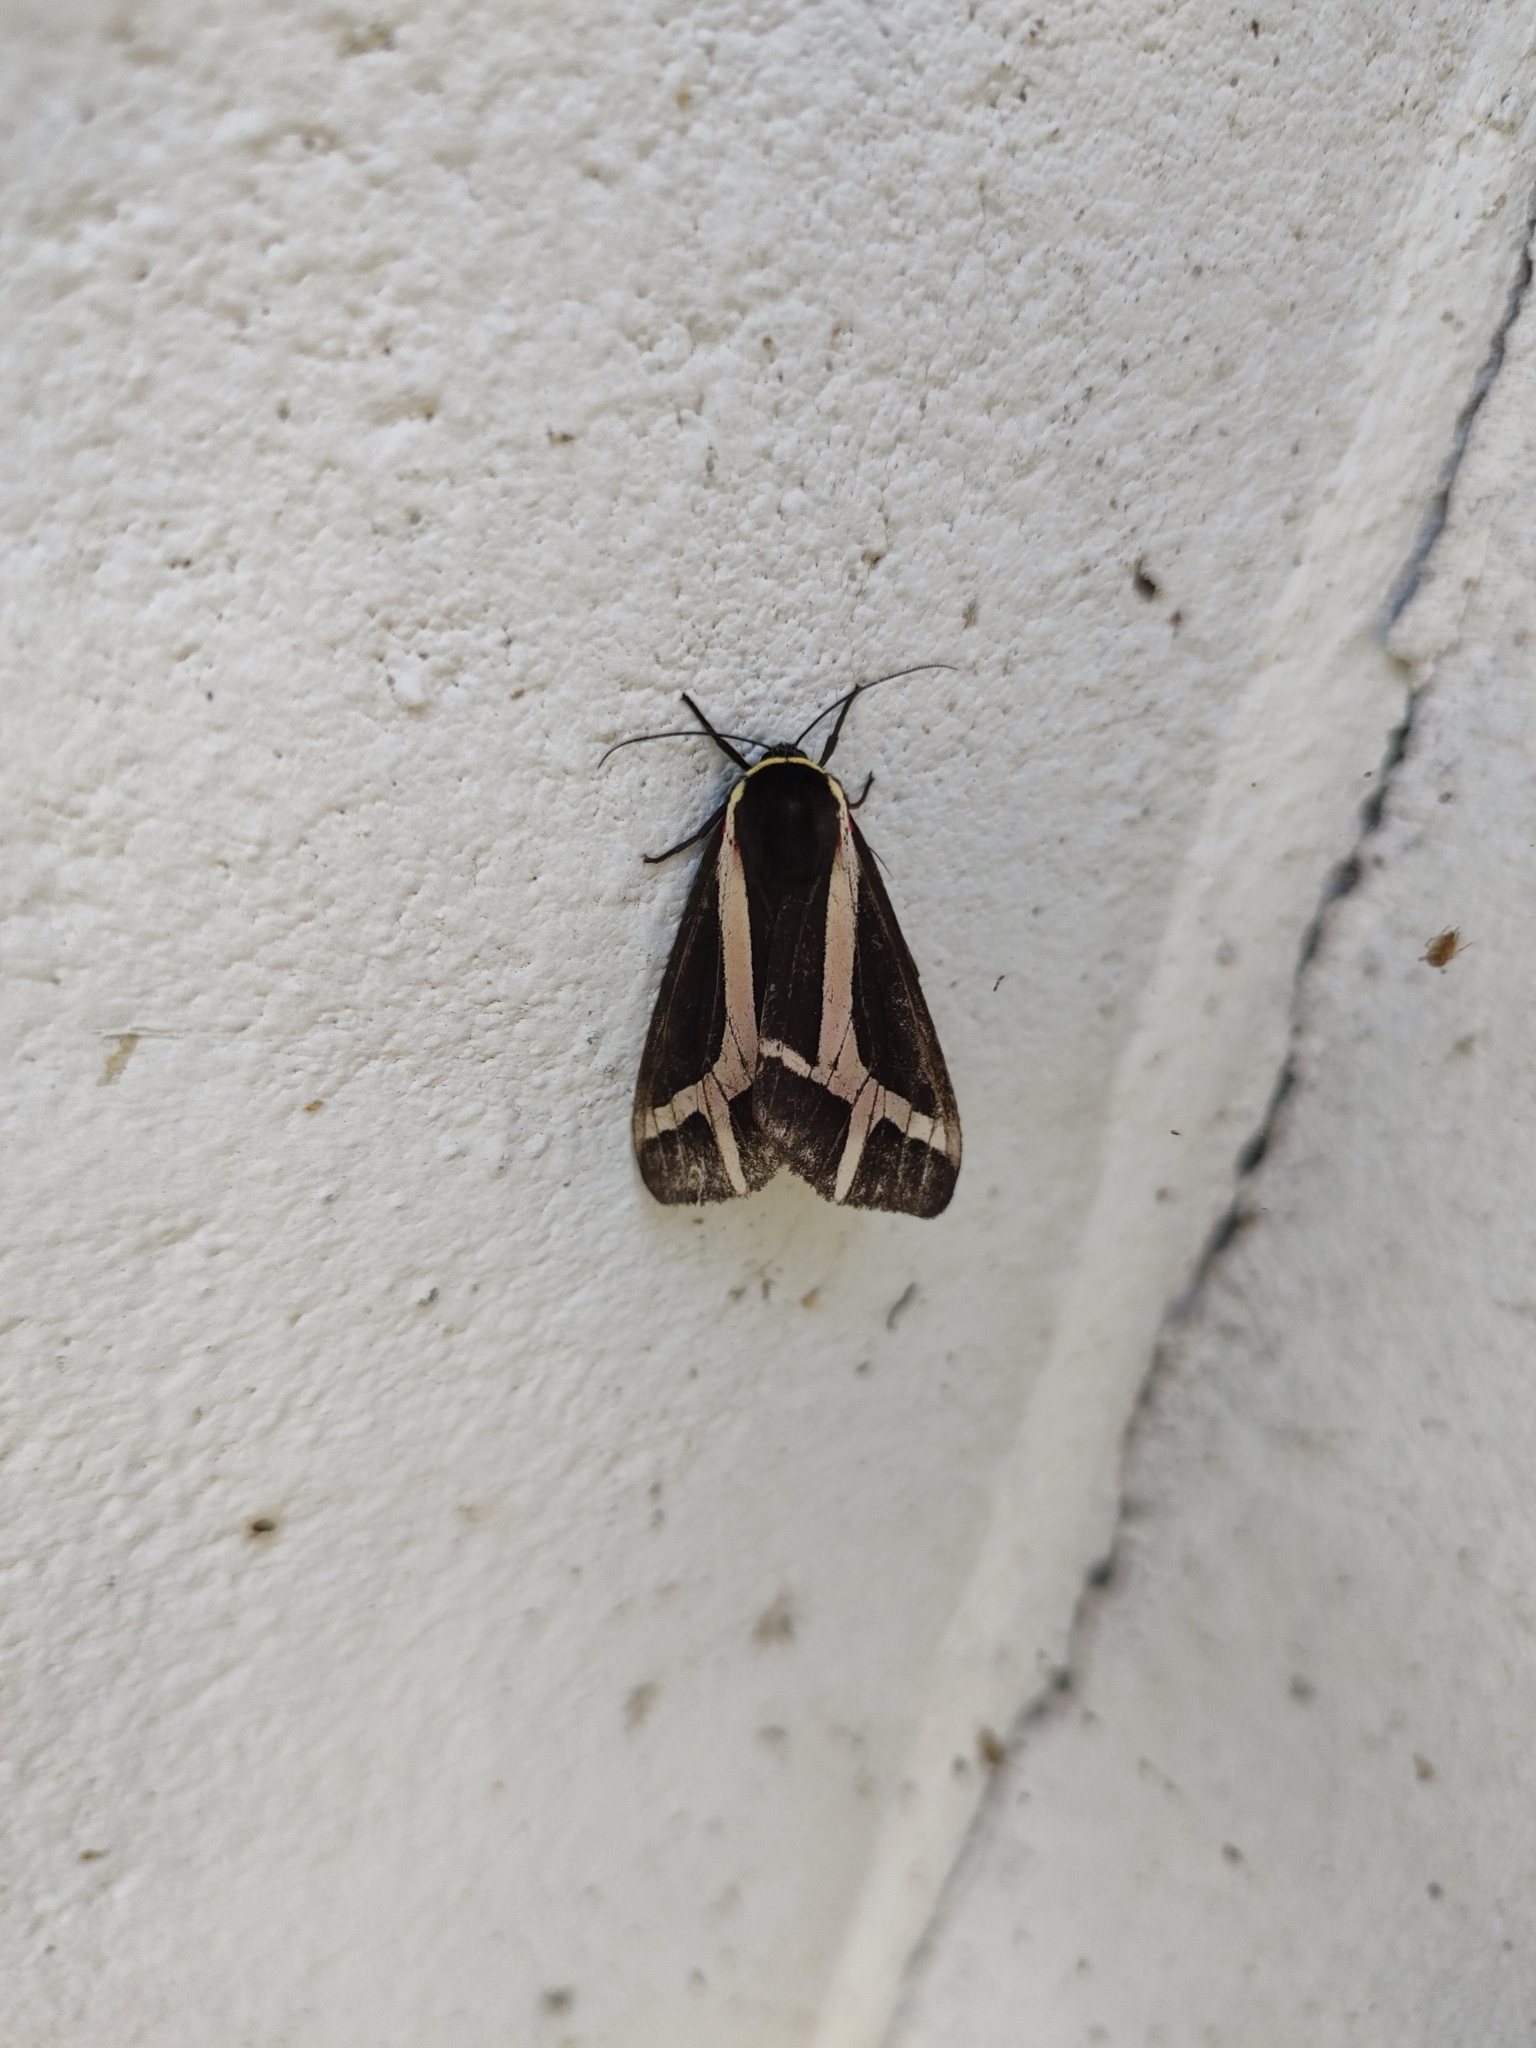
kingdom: Animalia
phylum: Arthropoda
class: Insecta
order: Lepidoptera
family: Erebidae
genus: Dysschema
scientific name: Dysschema sacrifica
